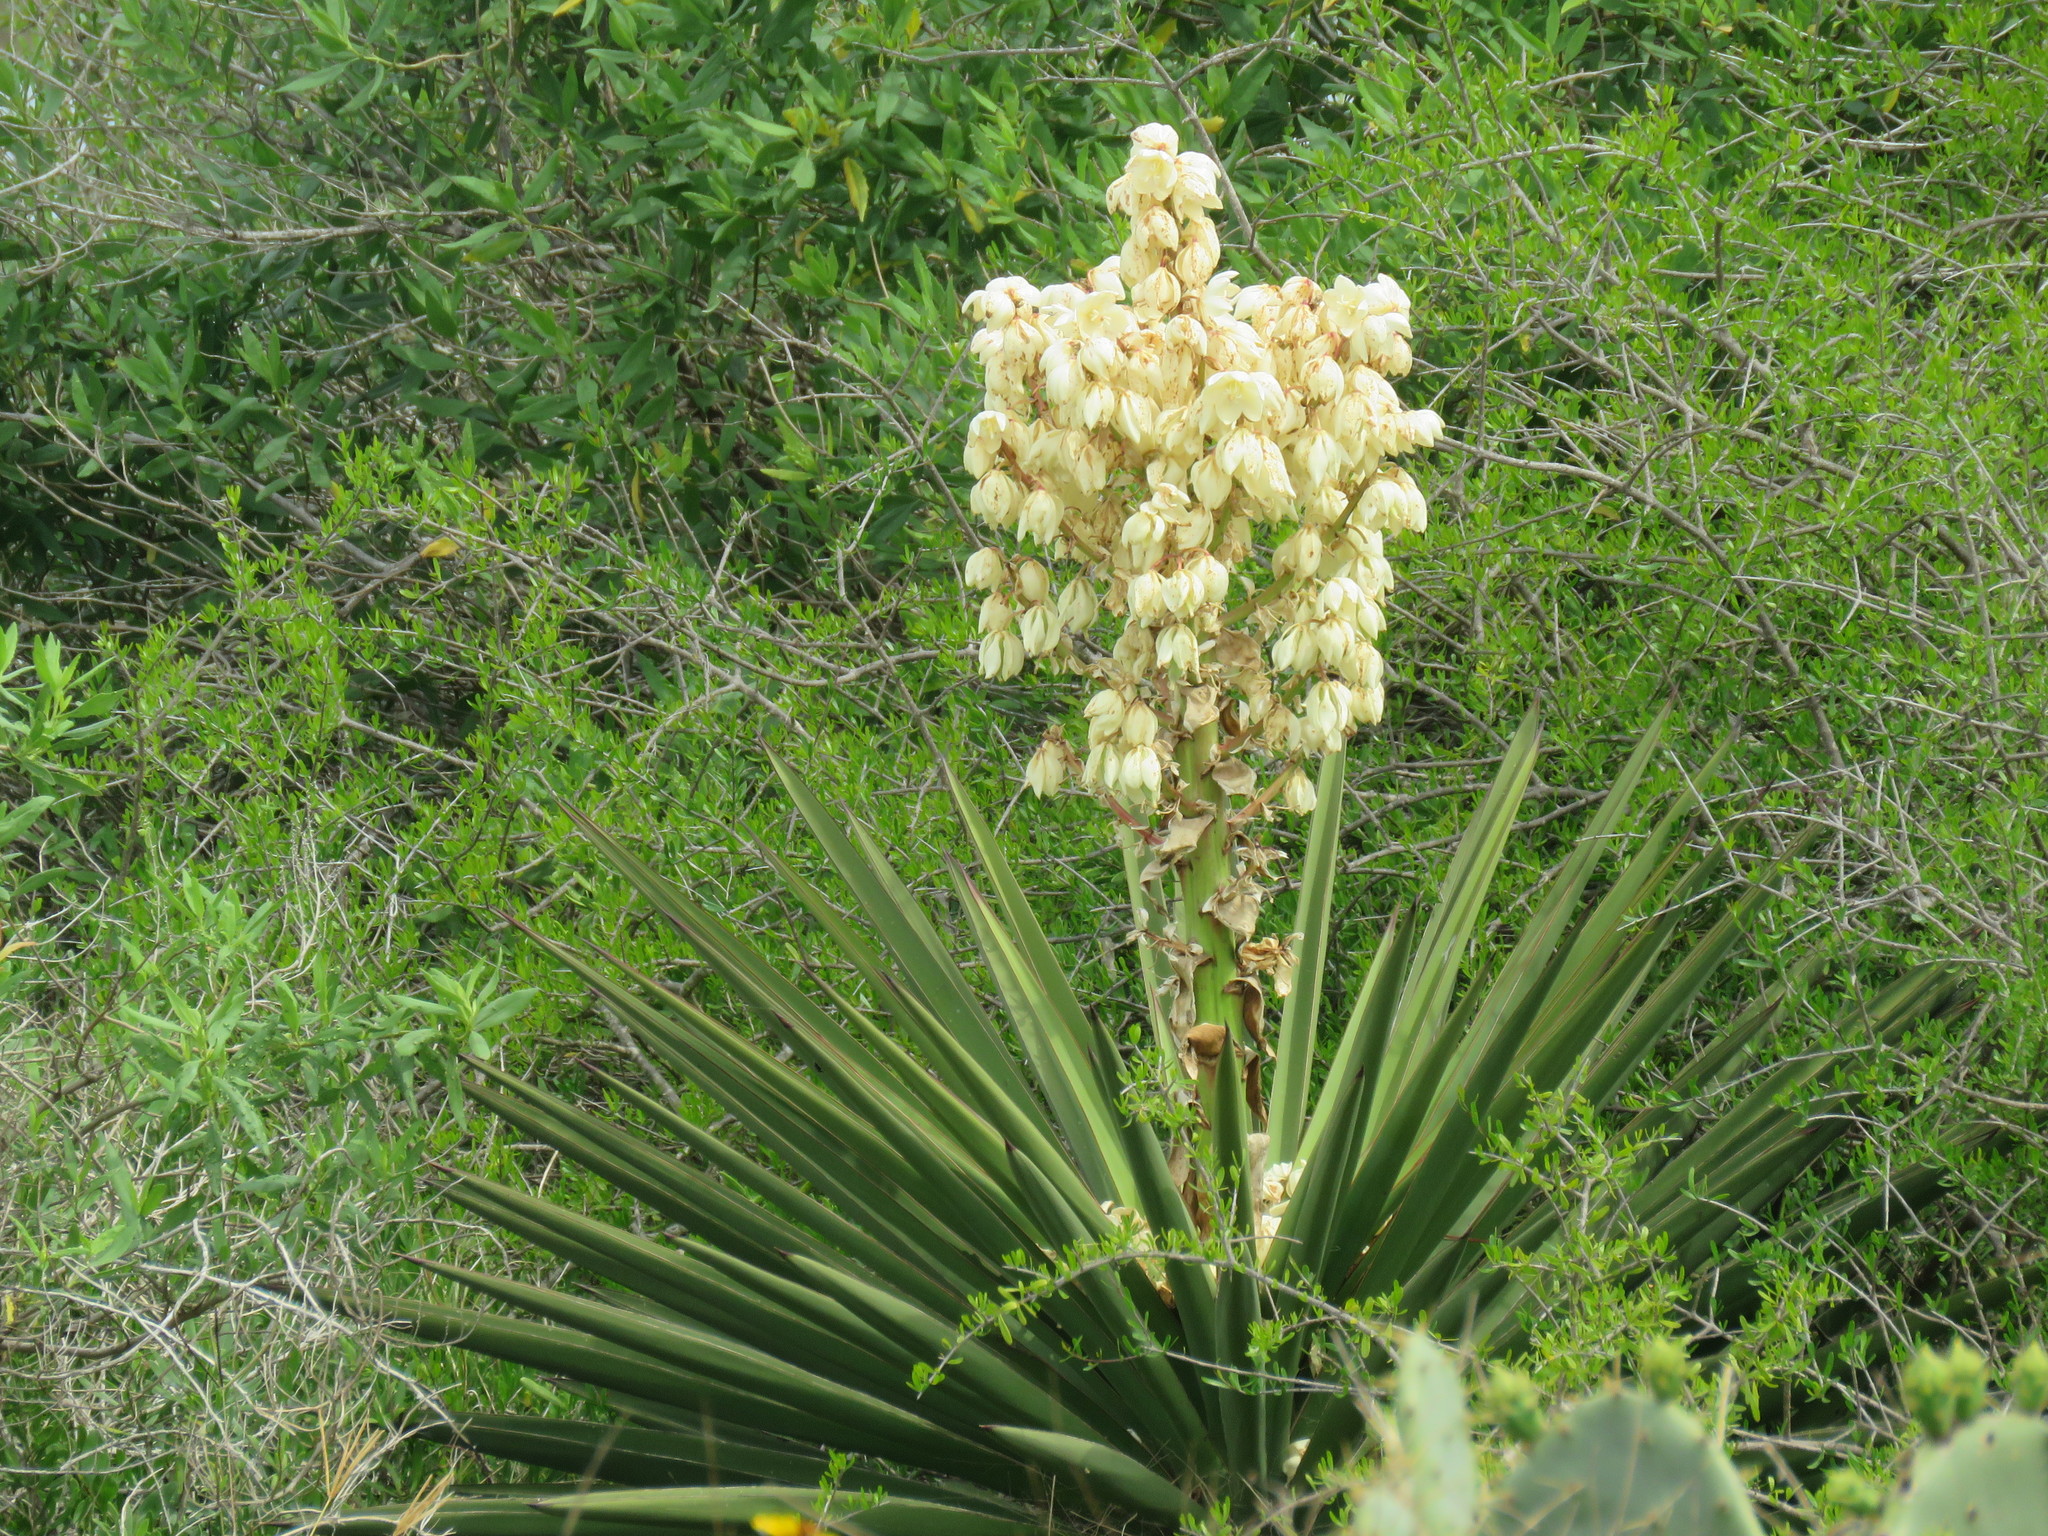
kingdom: Plantae
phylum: Tracheophyta
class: Liliopsida
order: Asparagales
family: Asparagaceae
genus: Yucca
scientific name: Yucca treculiana
